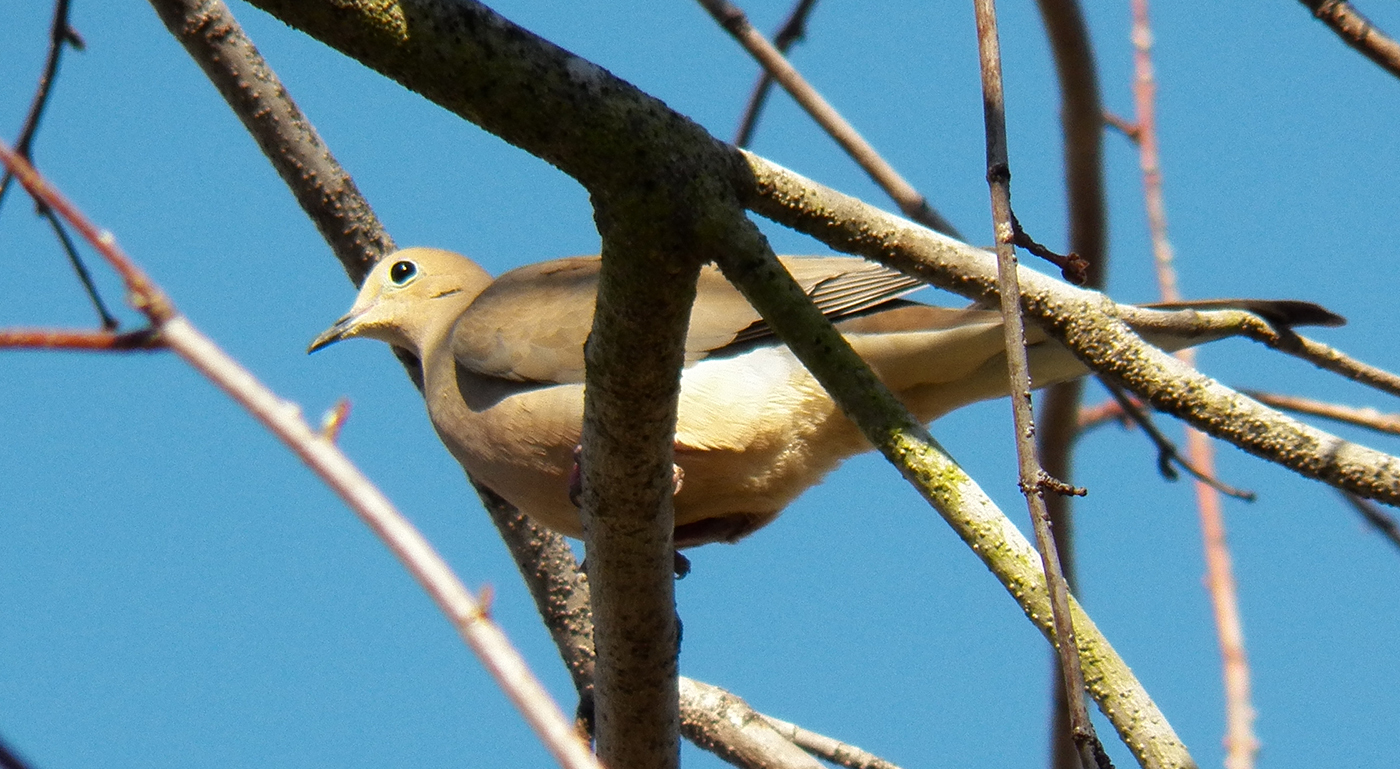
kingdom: Animalia
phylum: Chordata
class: Aves
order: Columbiformes
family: Columbidae
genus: Zenaida
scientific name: Zenaida macroura
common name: Mourning dove
